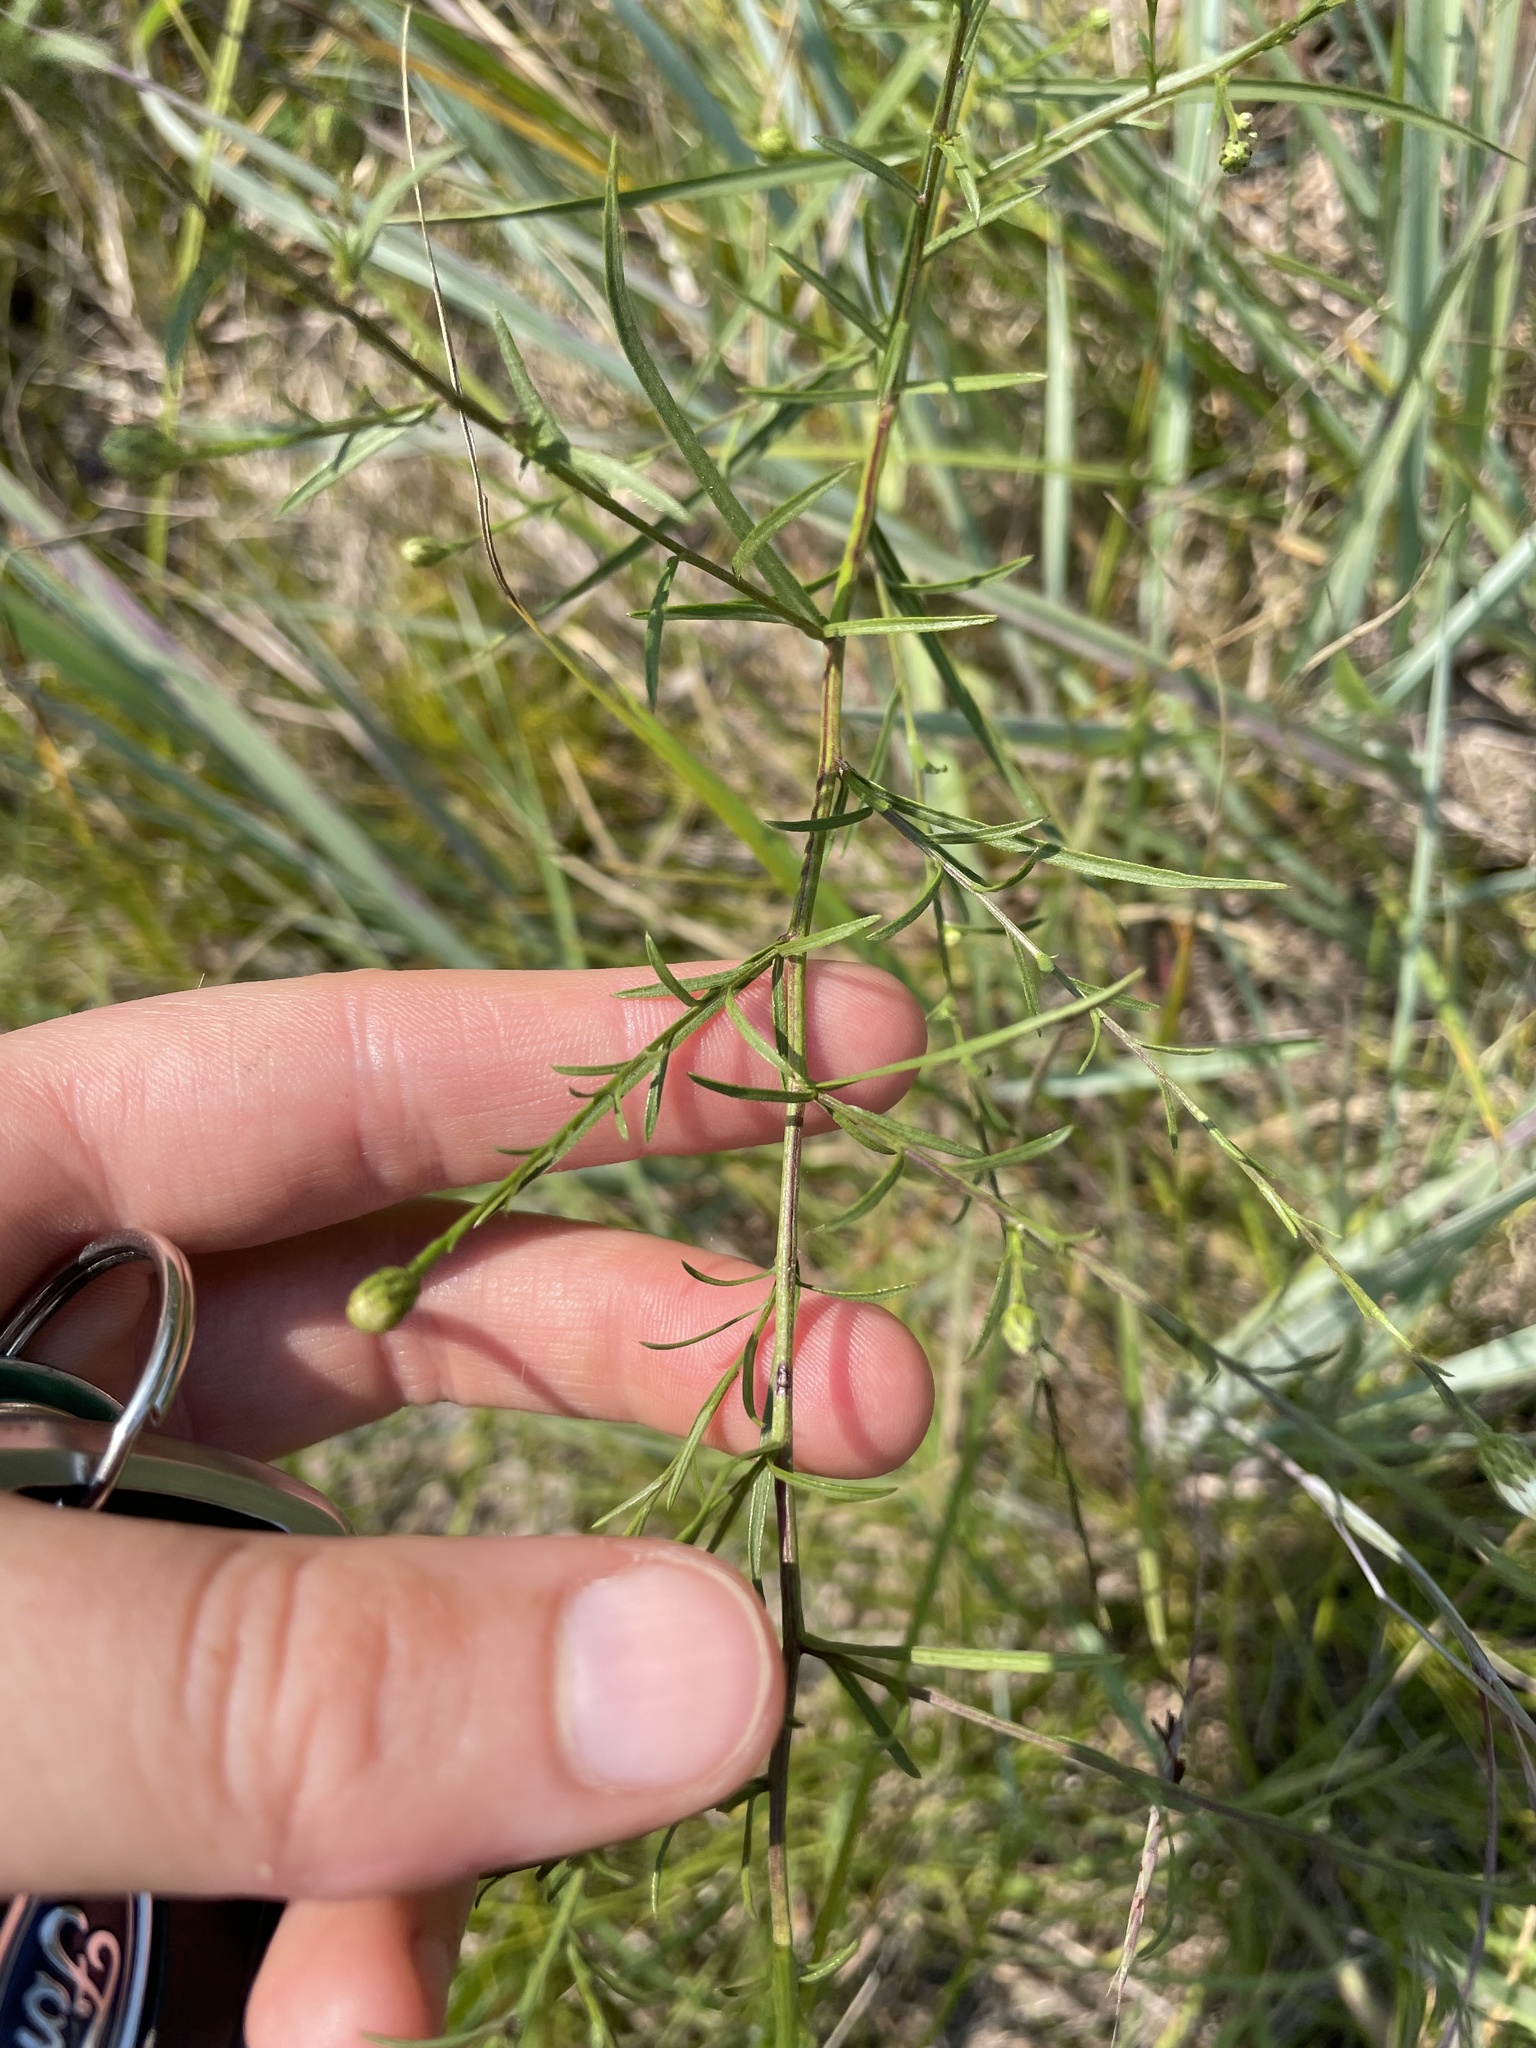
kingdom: Plantae
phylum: Tracheophyta
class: Magnoliopsida
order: Asterales
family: Asteraceae
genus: Symphyotrichum
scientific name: Symphyotrichum dumosum
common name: Bushy aster
